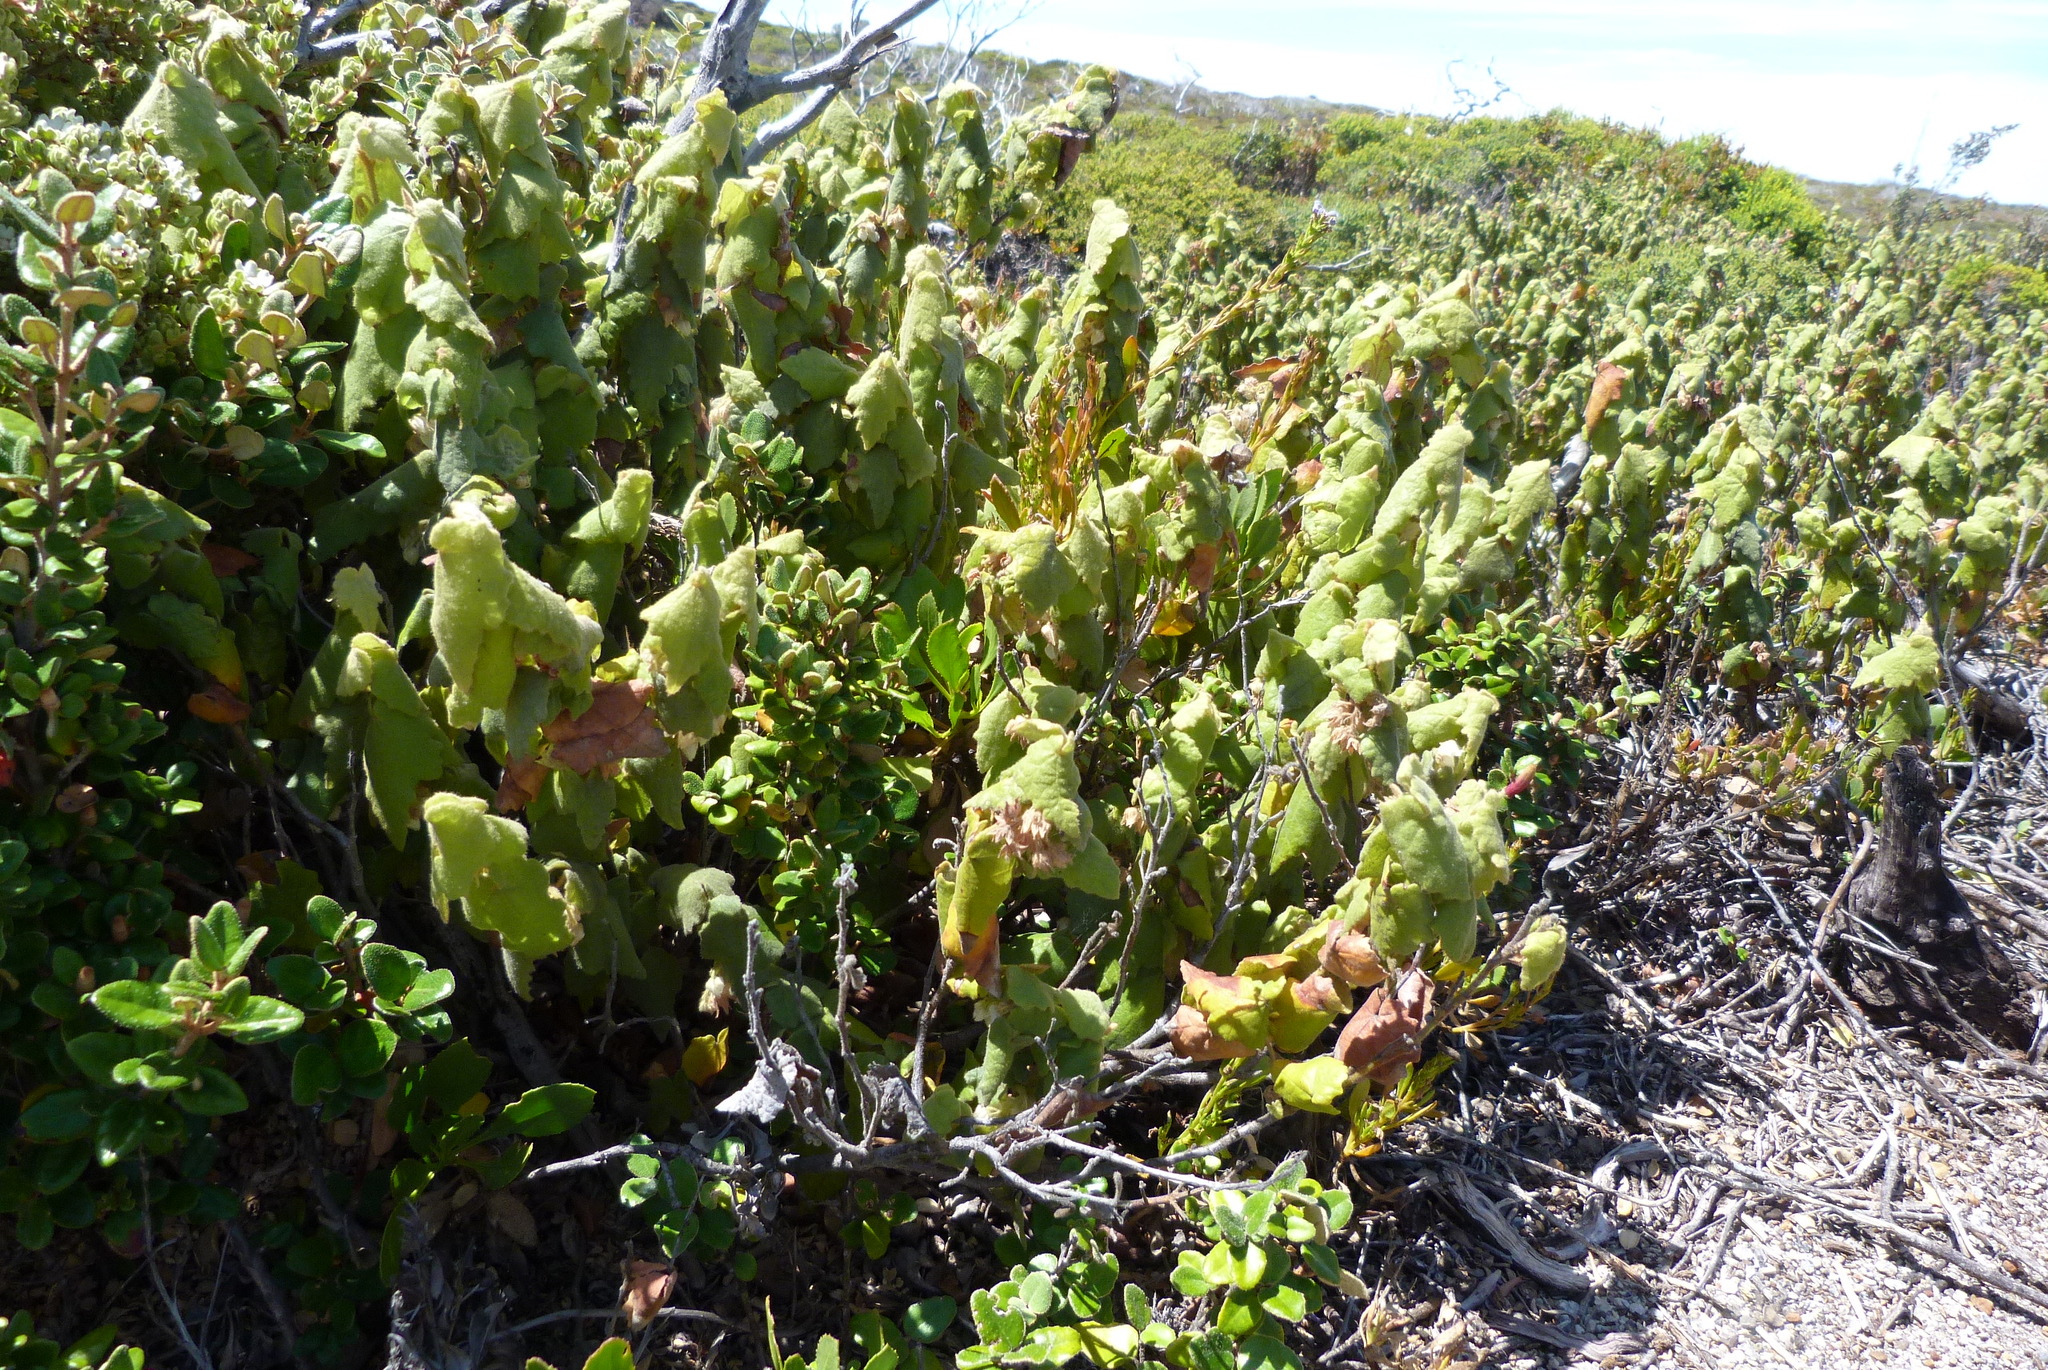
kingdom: Plantae
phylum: Tracheophyta
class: Magnoliopsida
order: Malvales
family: Malvaceae
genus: Lasiopetalum
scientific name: Lasiopetalum schulzenii
